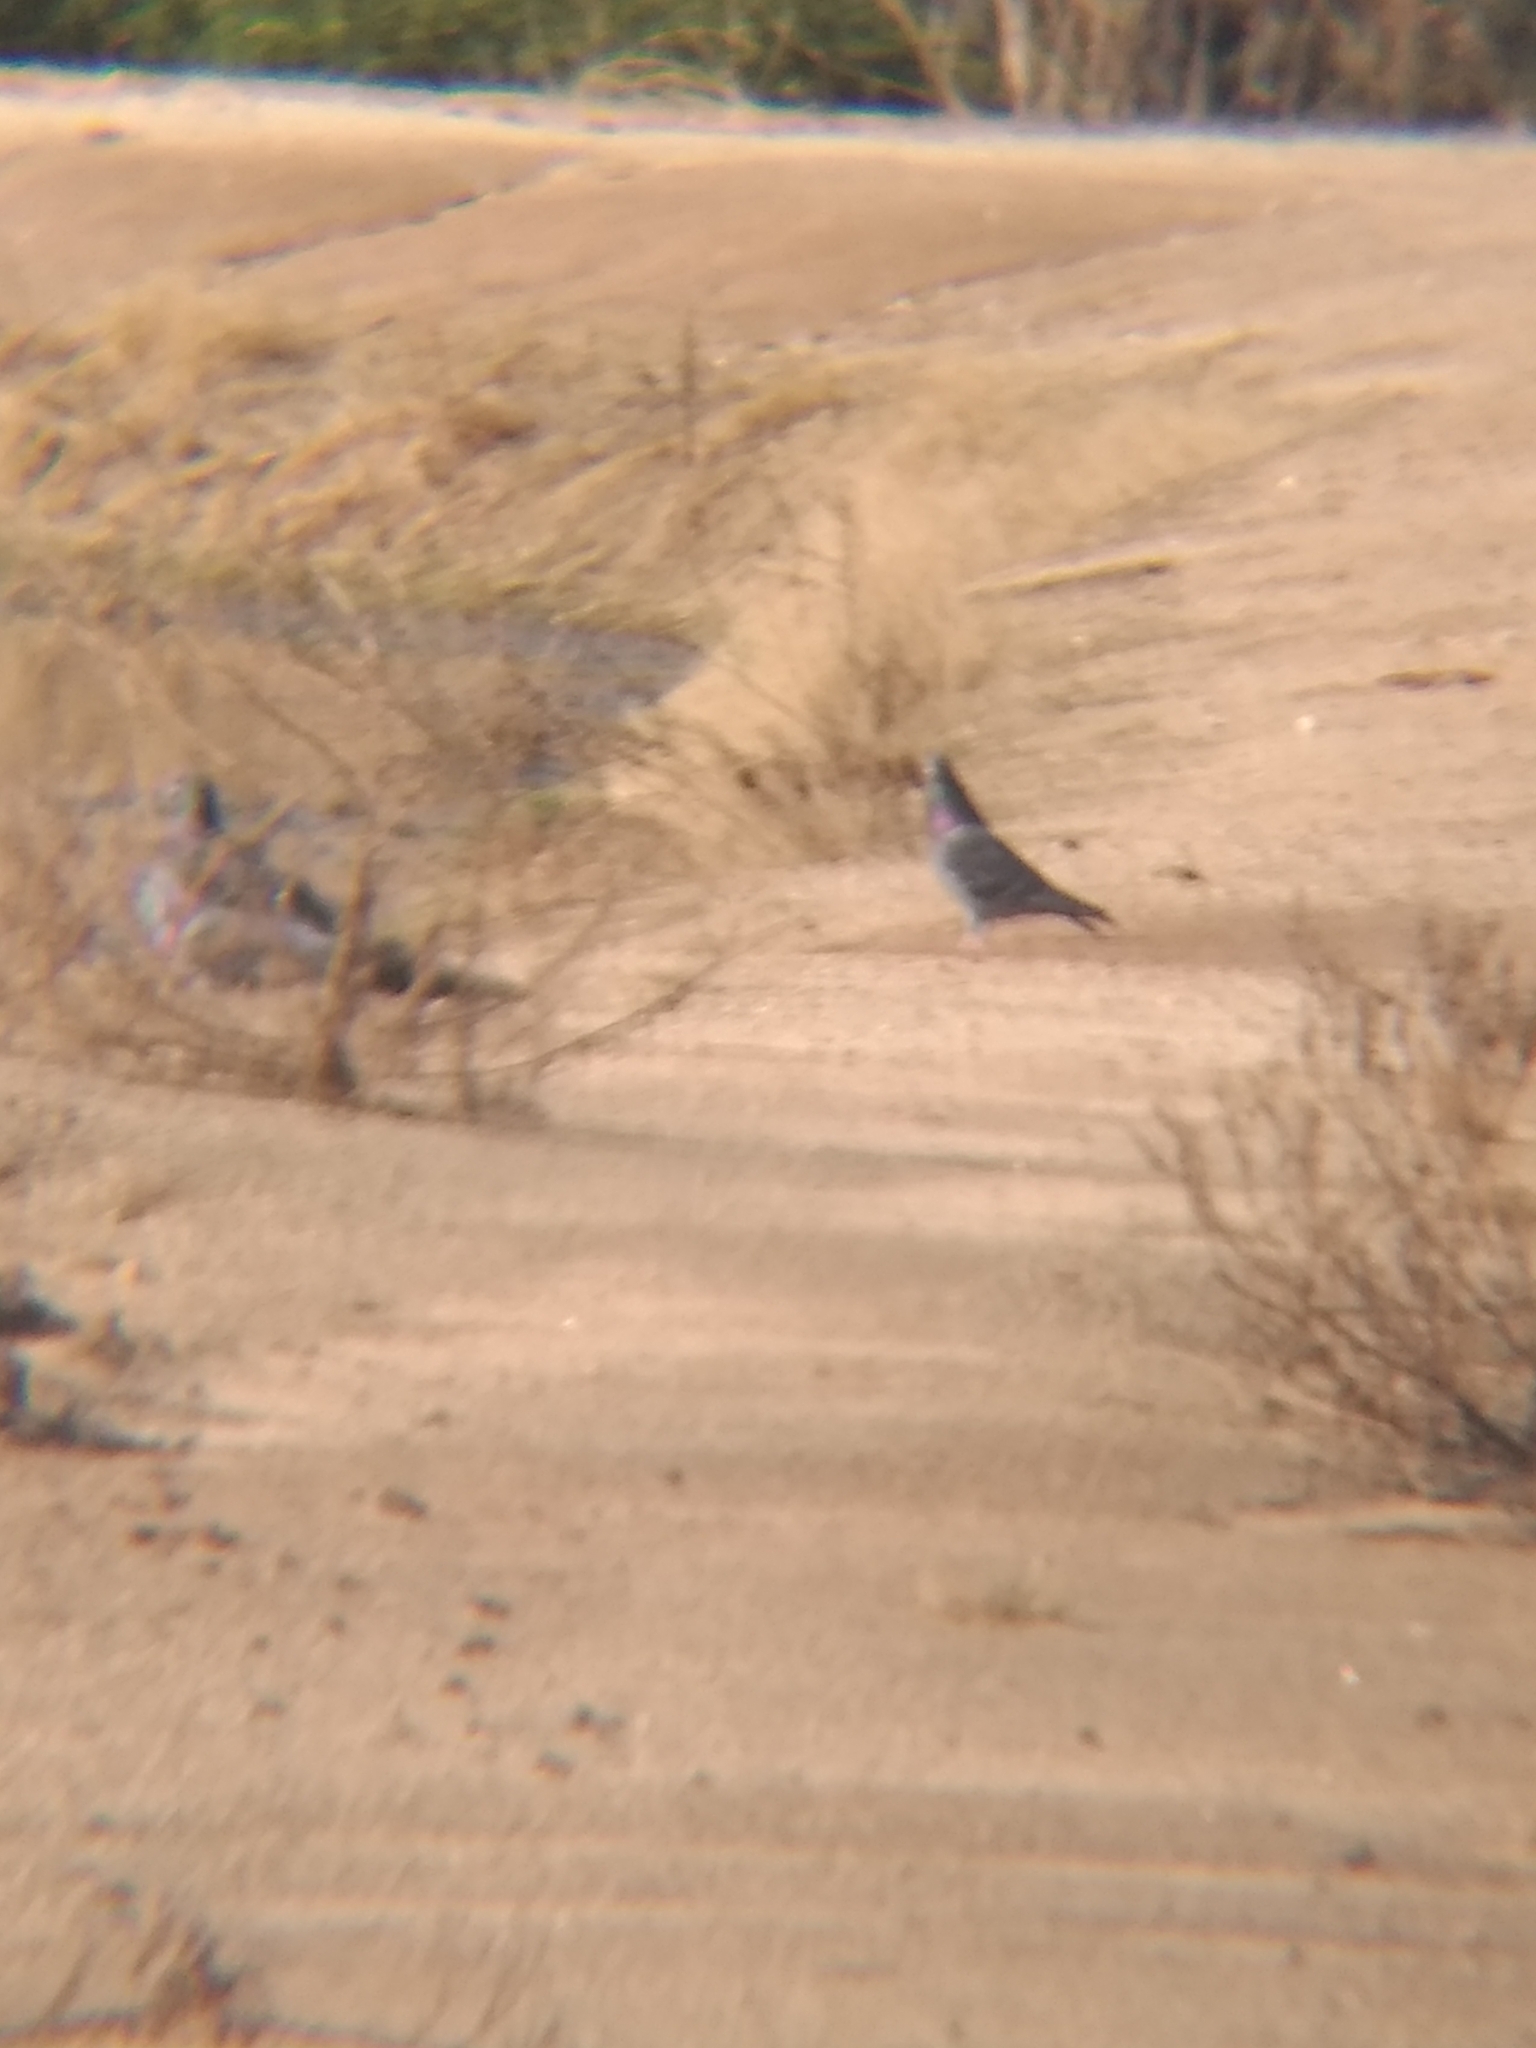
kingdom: Animalia
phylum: Chordata
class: Aves
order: Columbiformes
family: Columbidae
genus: Columba
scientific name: Columba livia
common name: Rock pigeon
